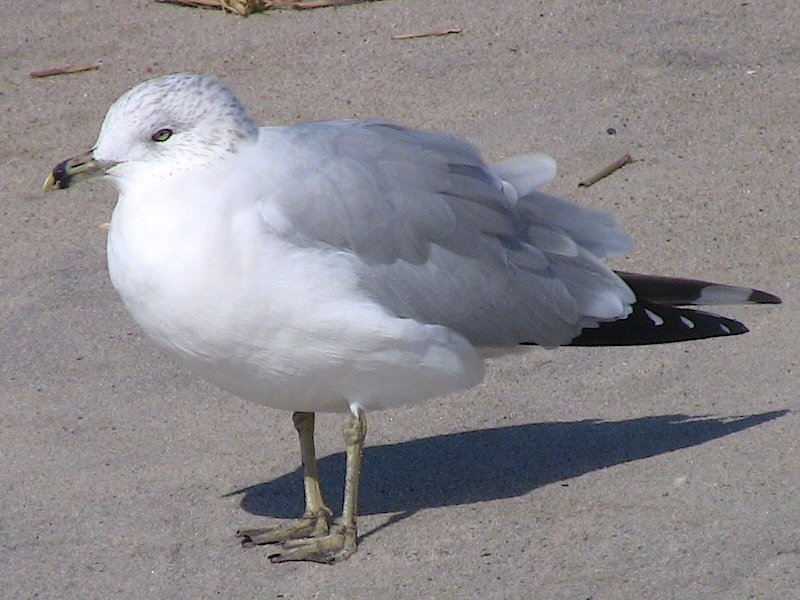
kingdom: Animalia
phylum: Chordata
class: Aves
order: Charadriiformes
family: Laridae
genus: Larus
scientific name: Larus delawarensis
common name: Ring-billed gull
